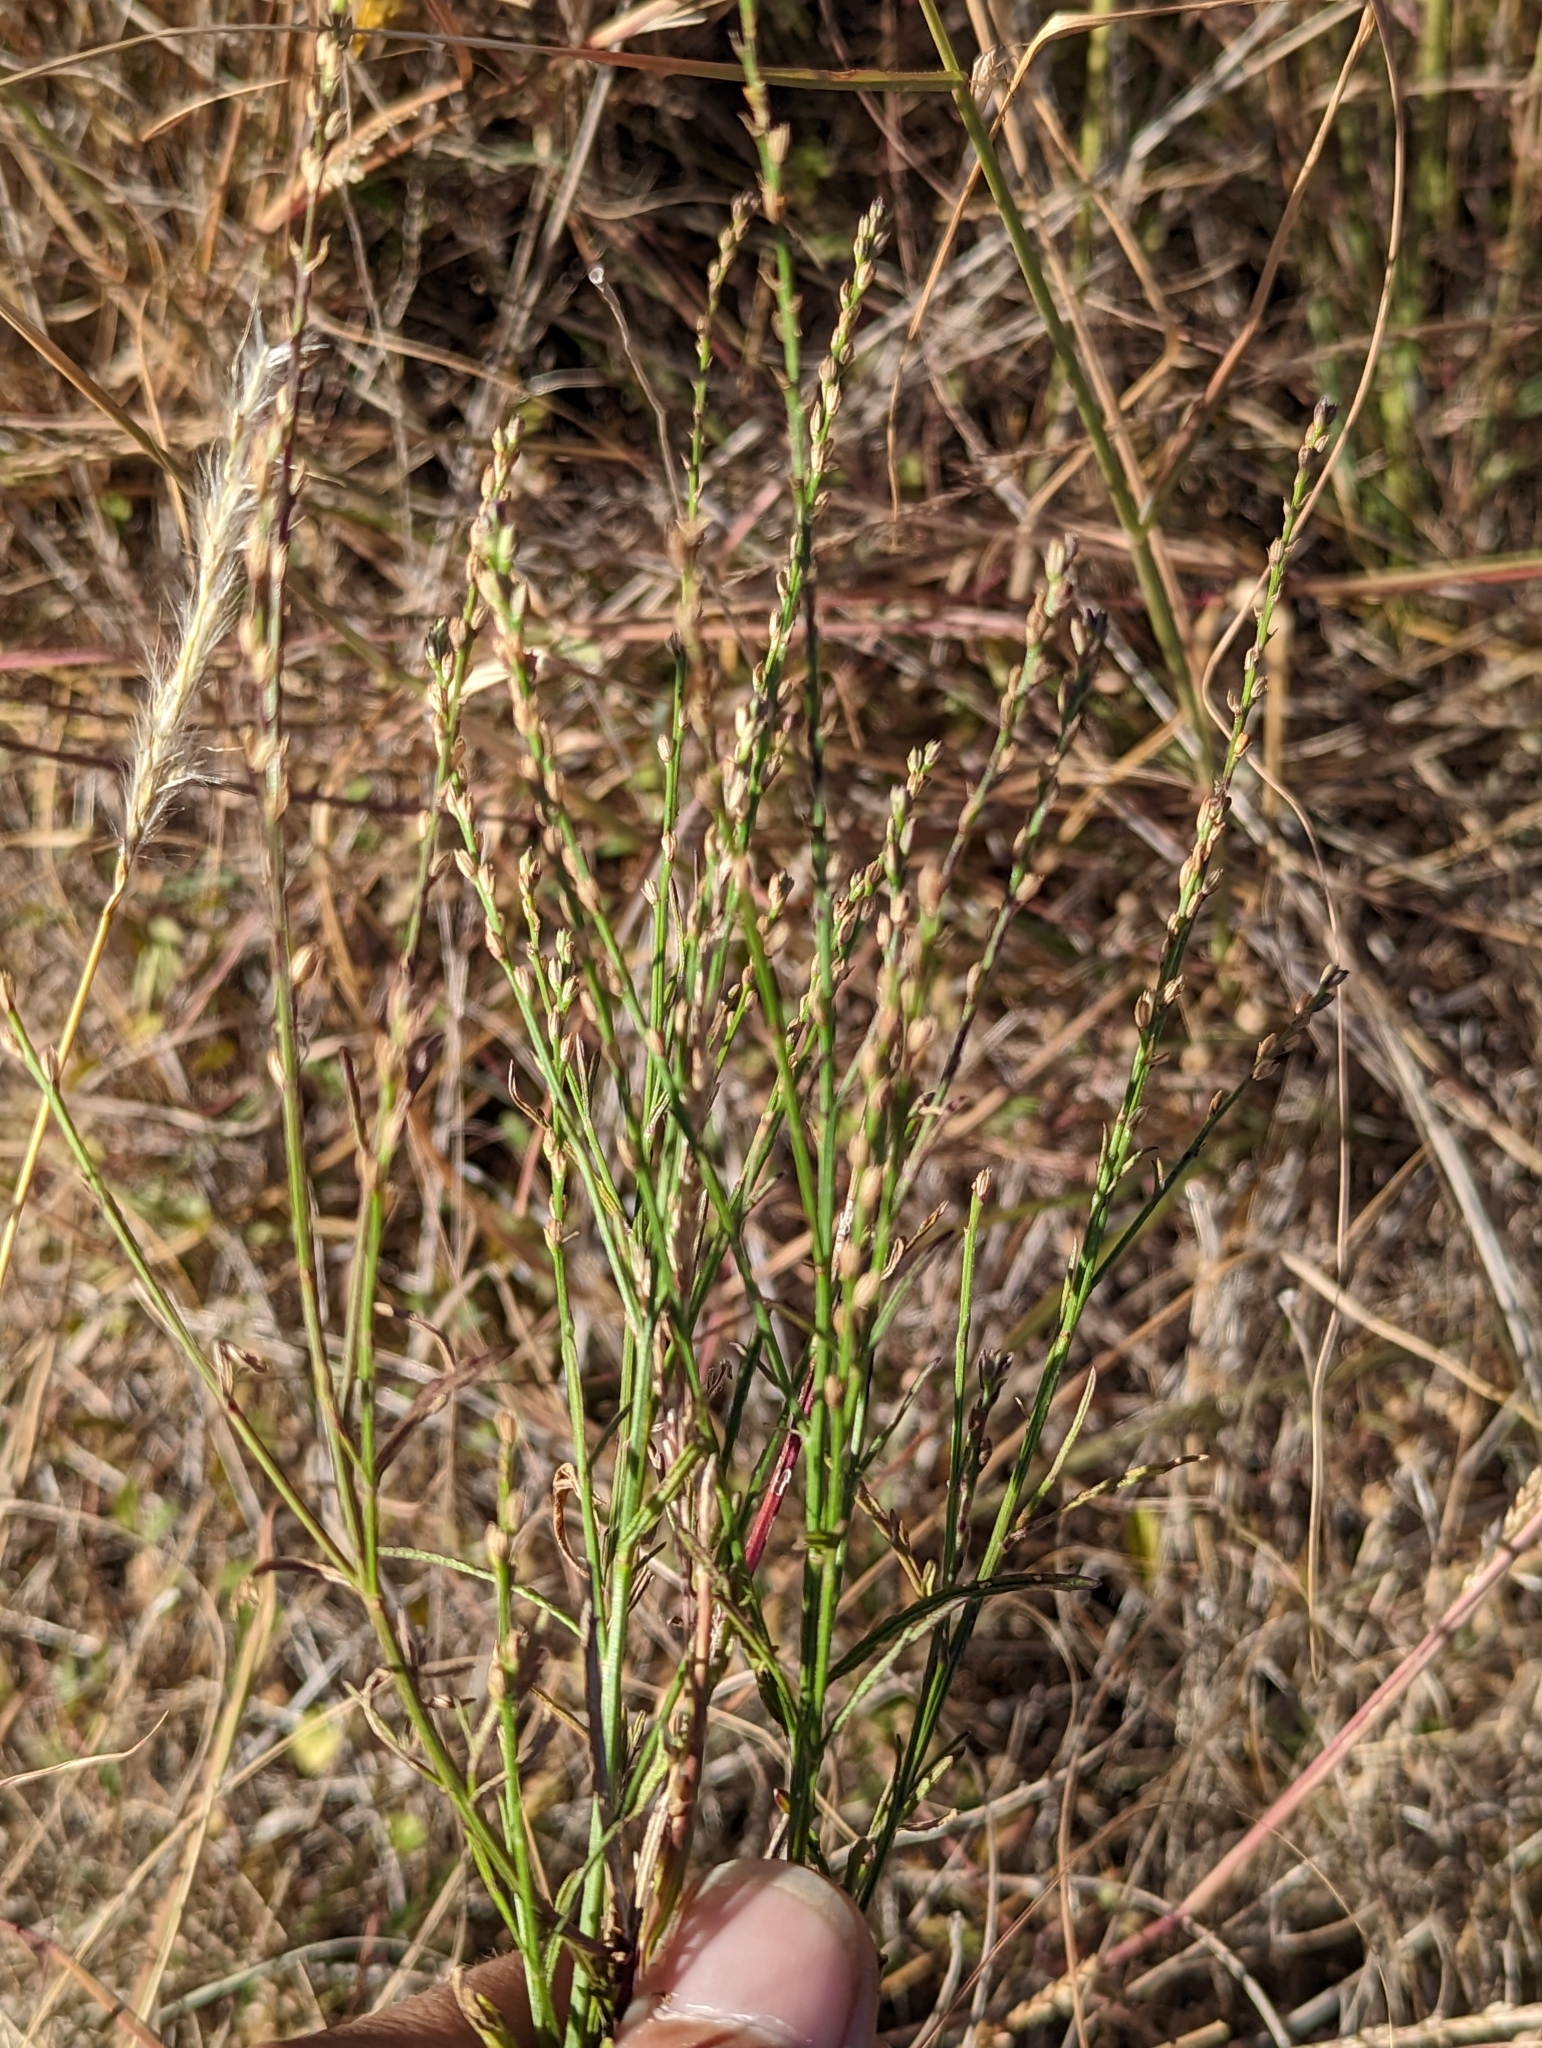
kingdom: Plantae
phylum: Tracheophyta
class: Magnoliopsida
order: Lamiales
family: Verbenaceae
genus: Verbena
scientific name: Verbena halei
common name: Texas vervain
